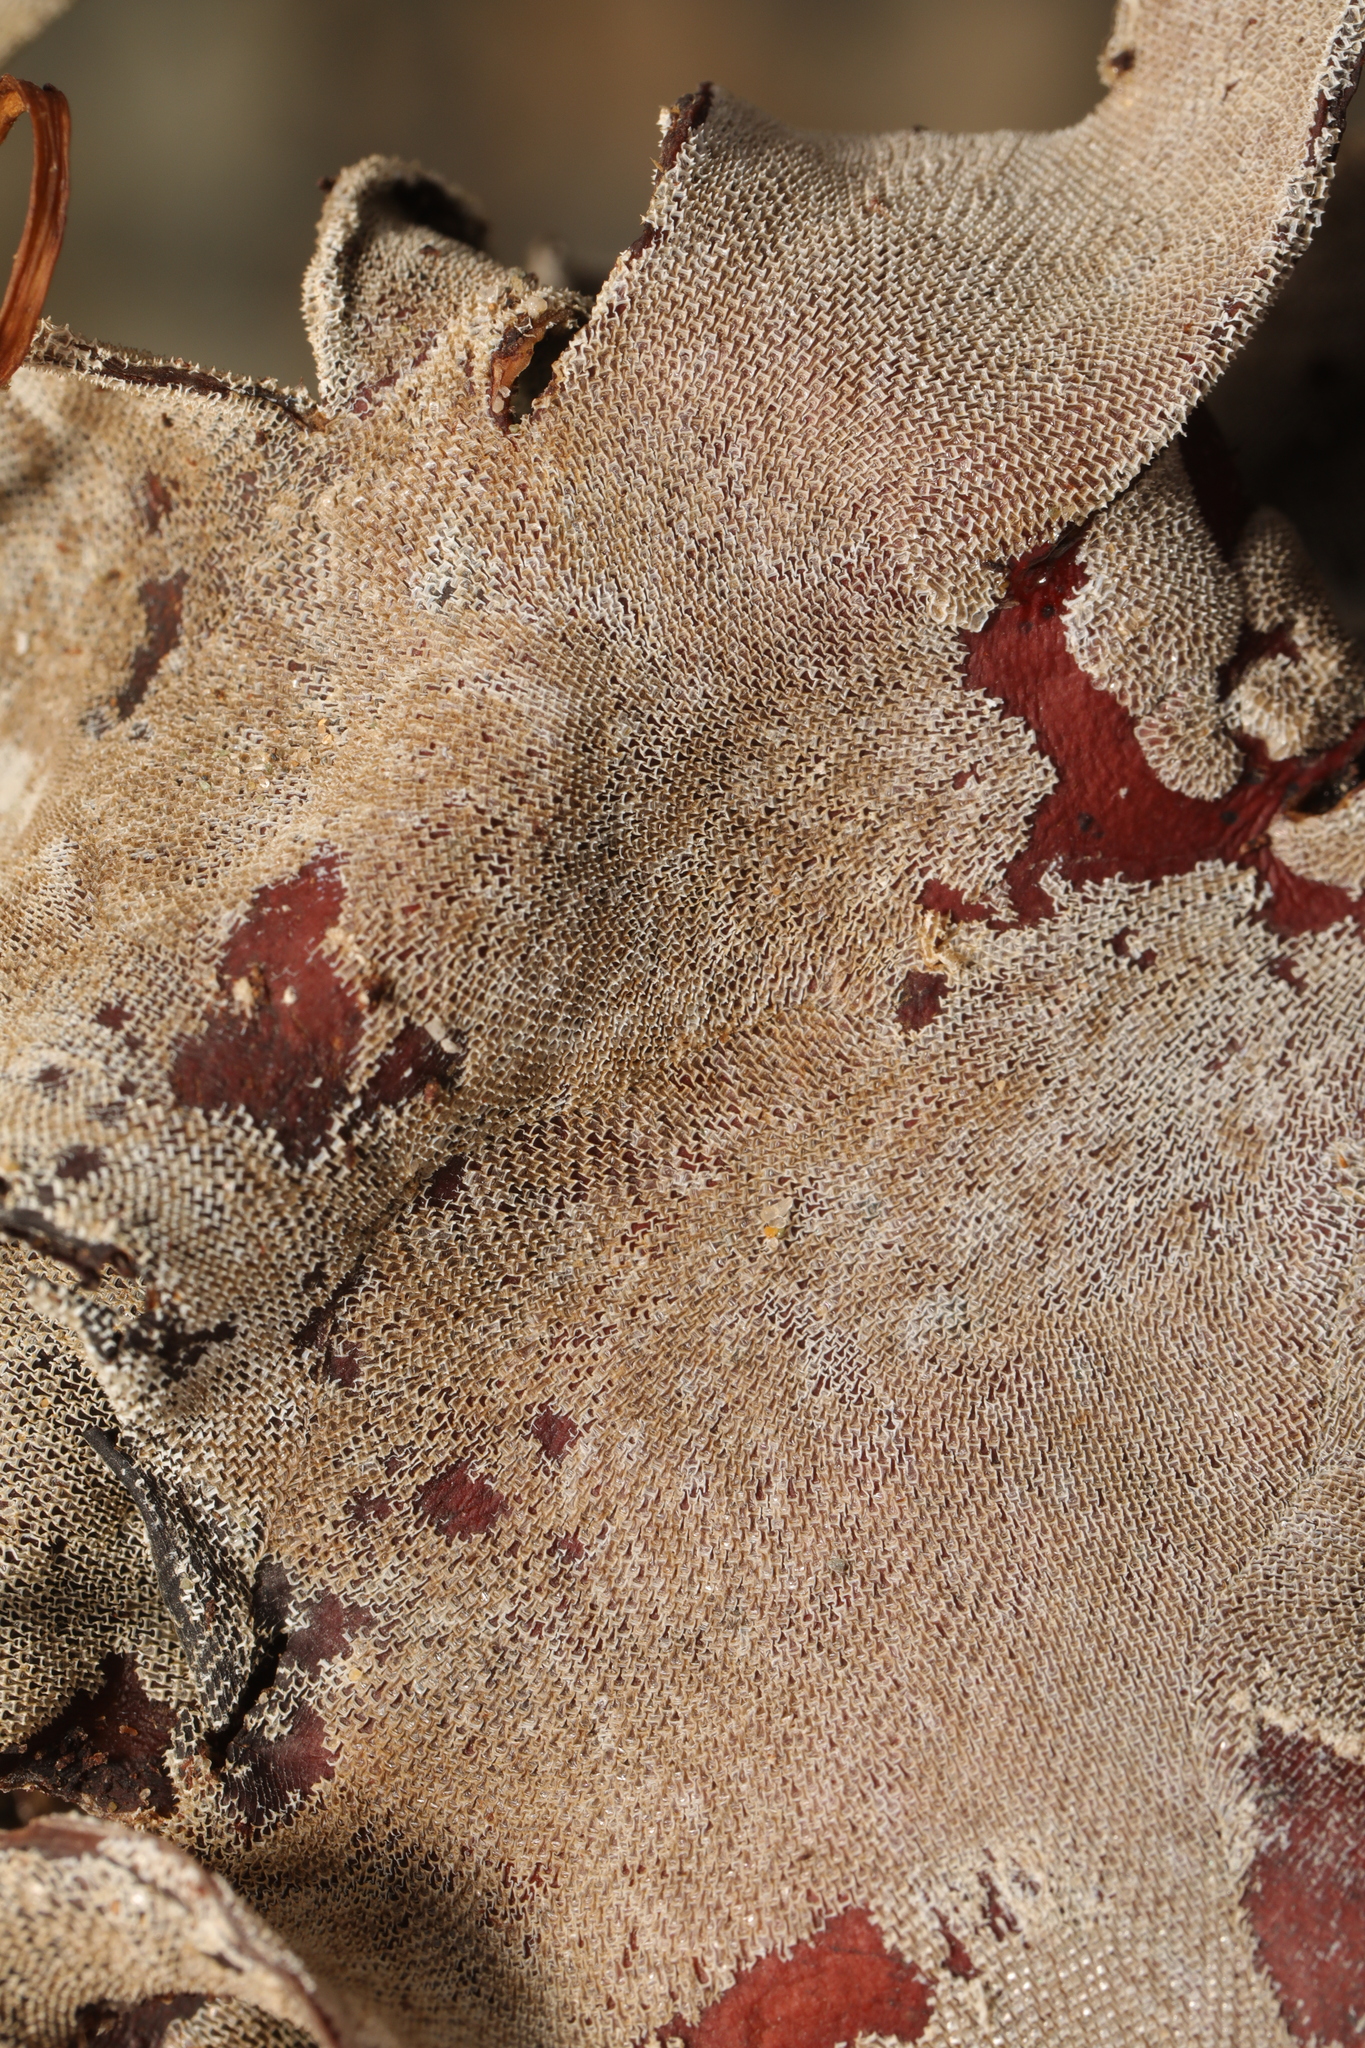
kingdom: Animalia
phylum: Bryozoa
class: Gymnolaemata
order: Cheilostomatida
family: Membraniporidae
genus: Membranipora
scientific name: Membranipora membranacea
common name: Sea mat
